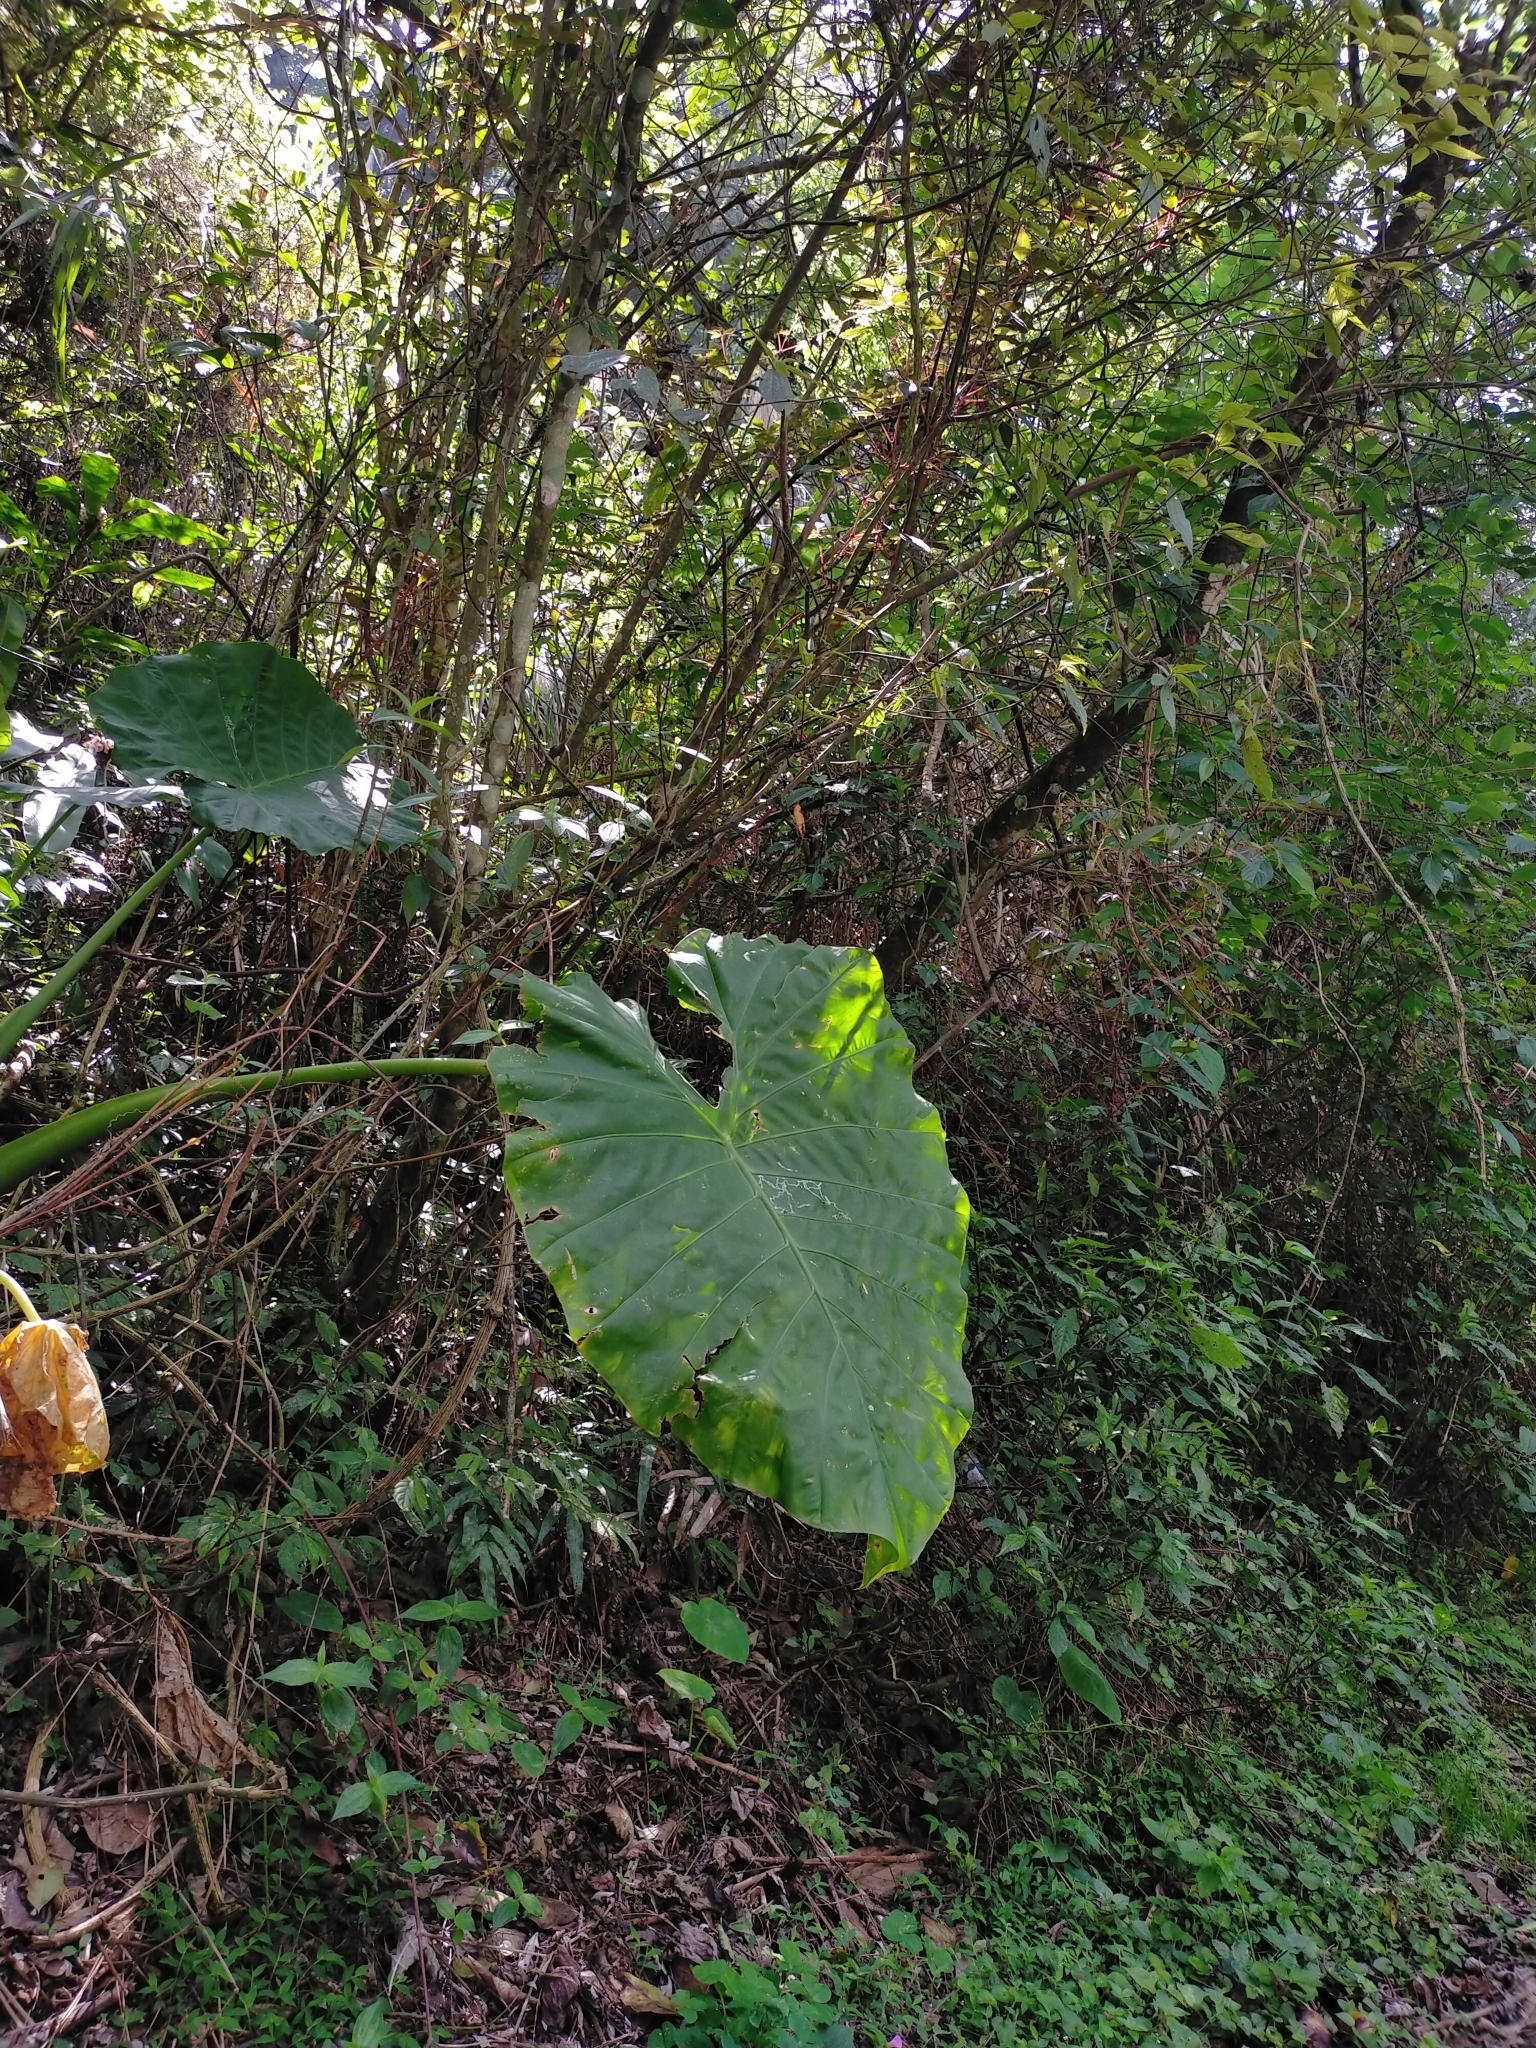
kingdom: Plantae
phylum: Tracheophyta
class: Liliopsida
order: Alismatales
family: Araceae
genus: Alocasia
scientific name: Alocasia odora
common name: Asian taro
